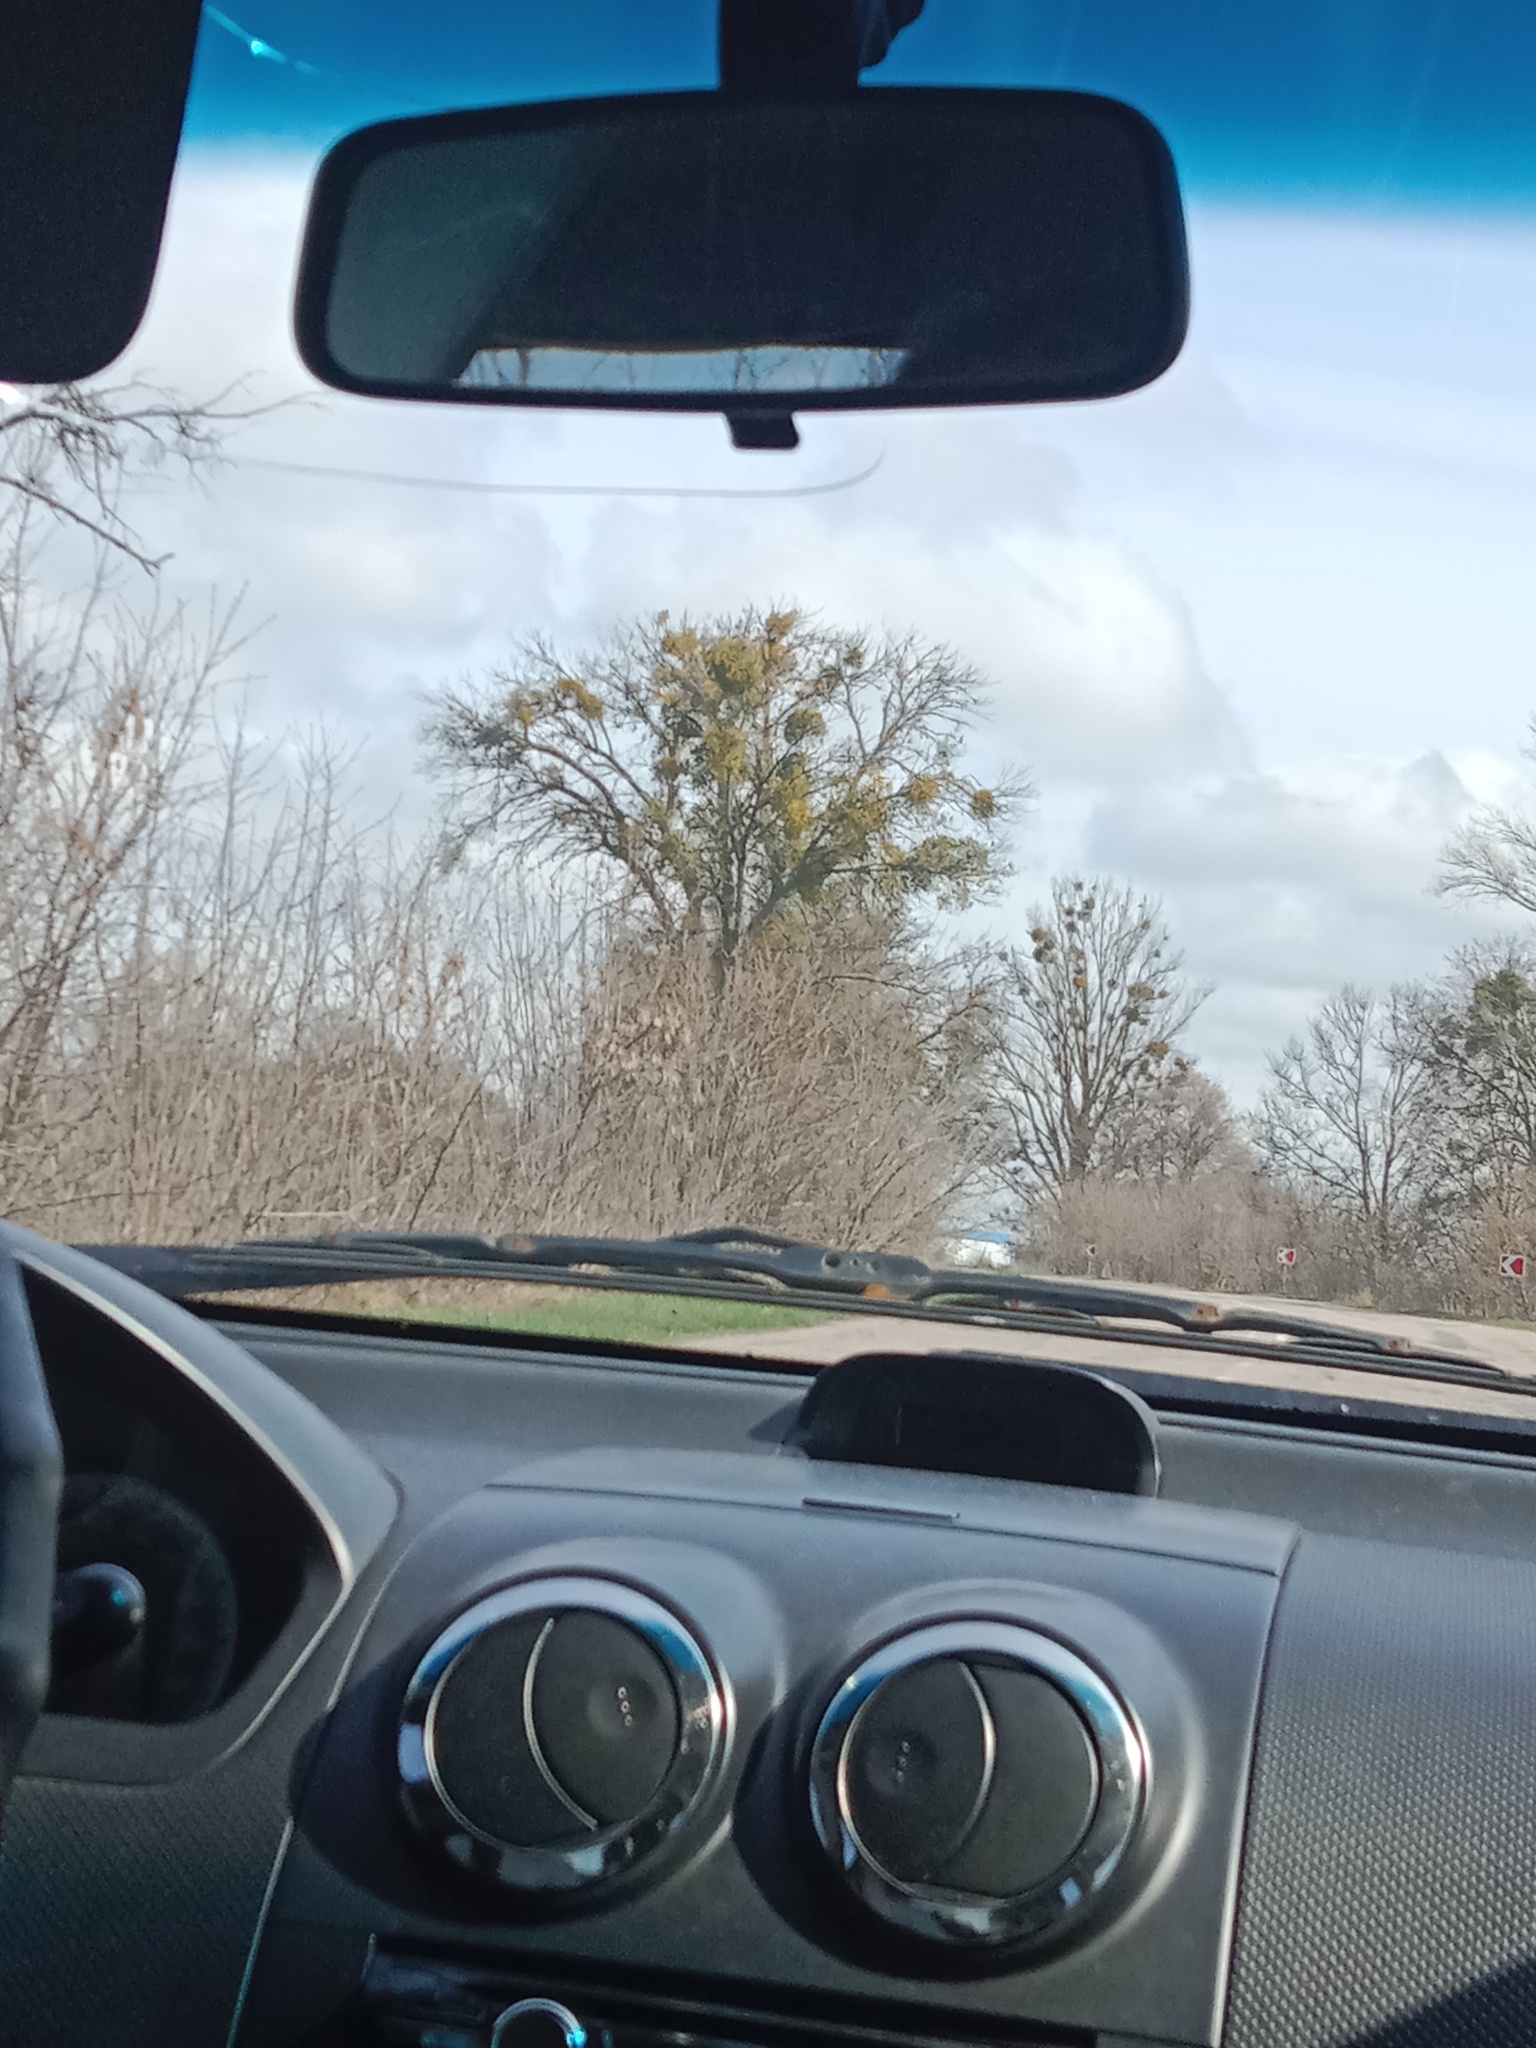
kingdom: Plantae
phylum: Tracheophyta
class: Magnoliopsida
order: Santalales
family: Viscaceae
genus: Viscum
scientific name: Viscum album
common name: Mistletoe
